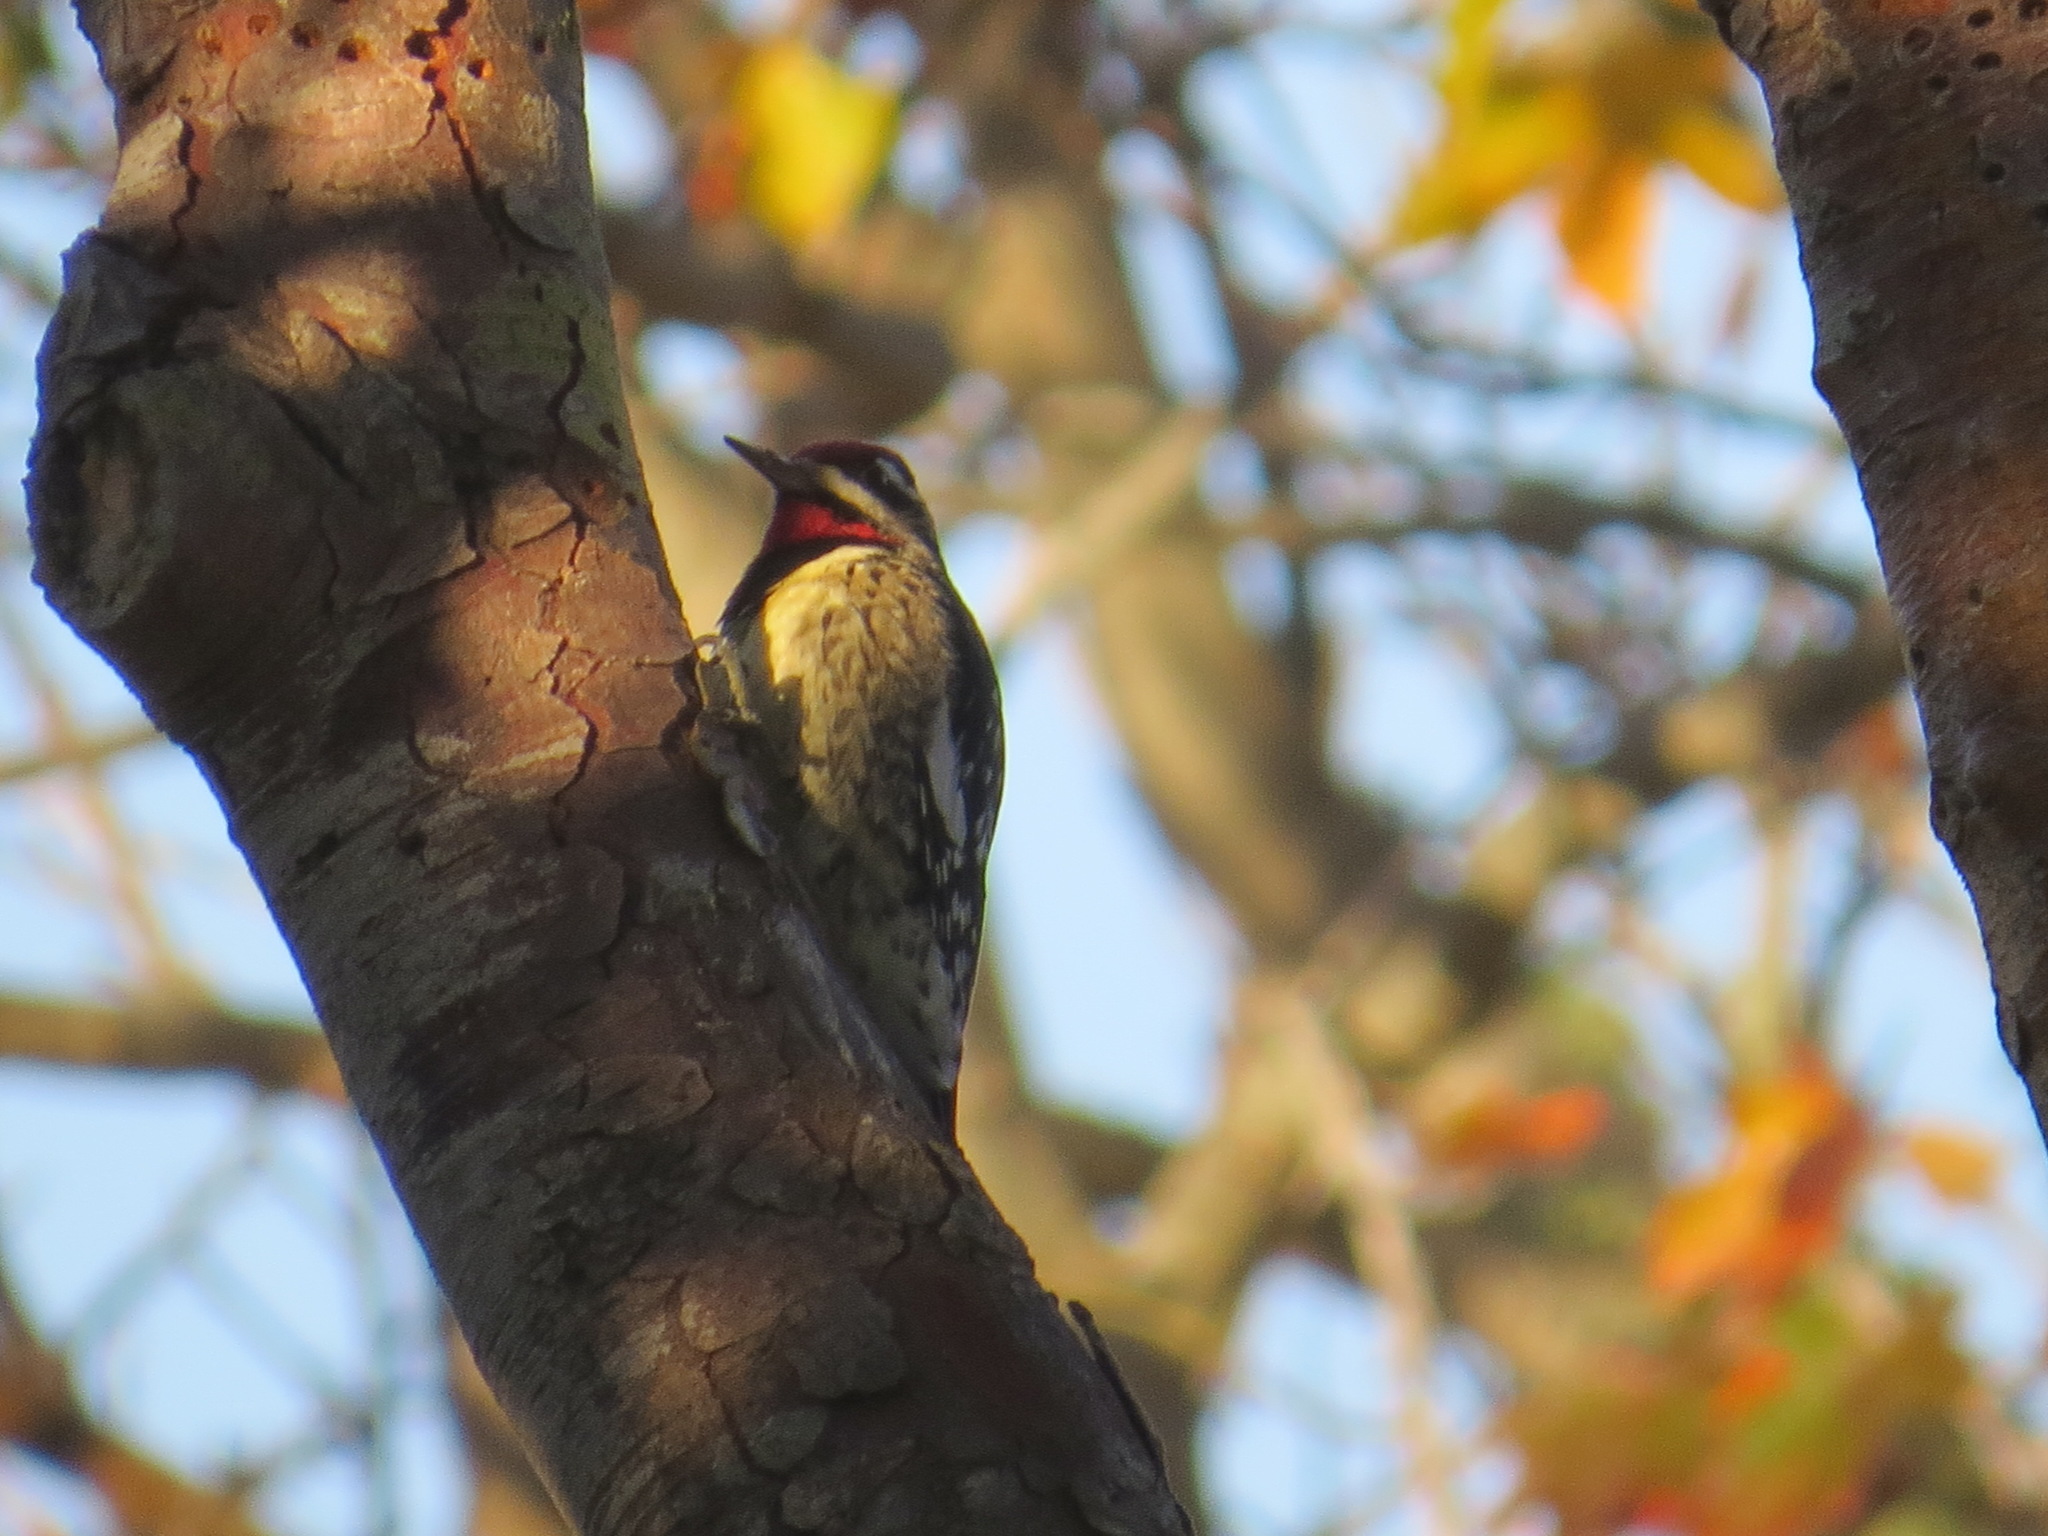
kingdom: Animalia
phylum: Chordata
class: Aves
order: Piciformes
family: Picidae
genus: Sphyrapicus
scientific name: Sphyrapicus varius
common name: Yellow-bellied sapsucker
